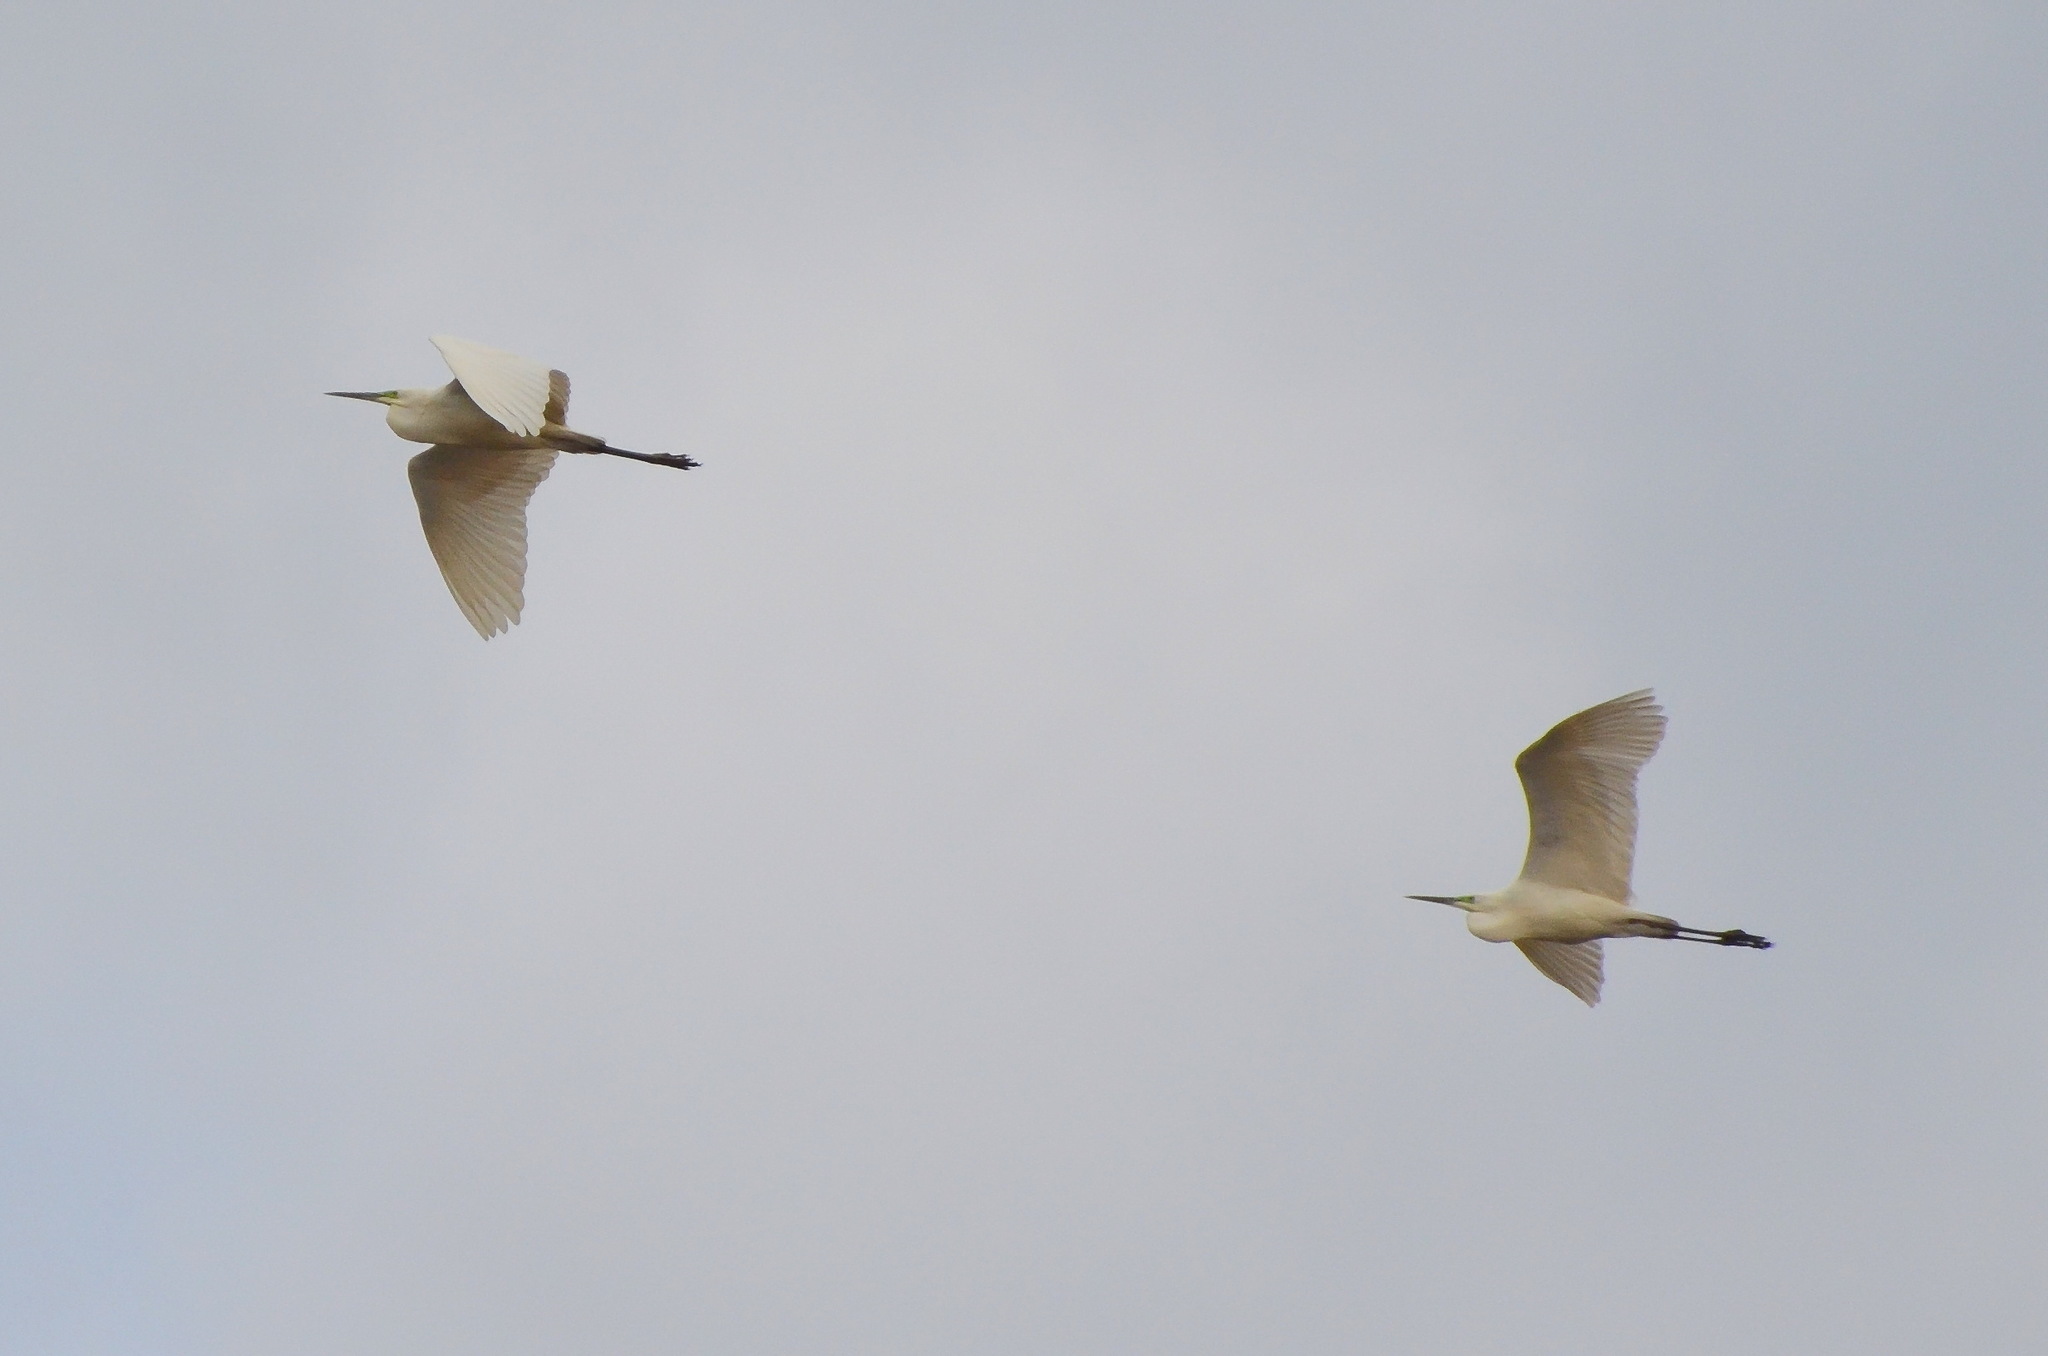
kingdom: Animalia
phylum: Chordata
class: Aves
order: Pelecaniformes
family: Ardeidae
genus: Ardea
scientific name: Ardea alba
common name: Great egret
